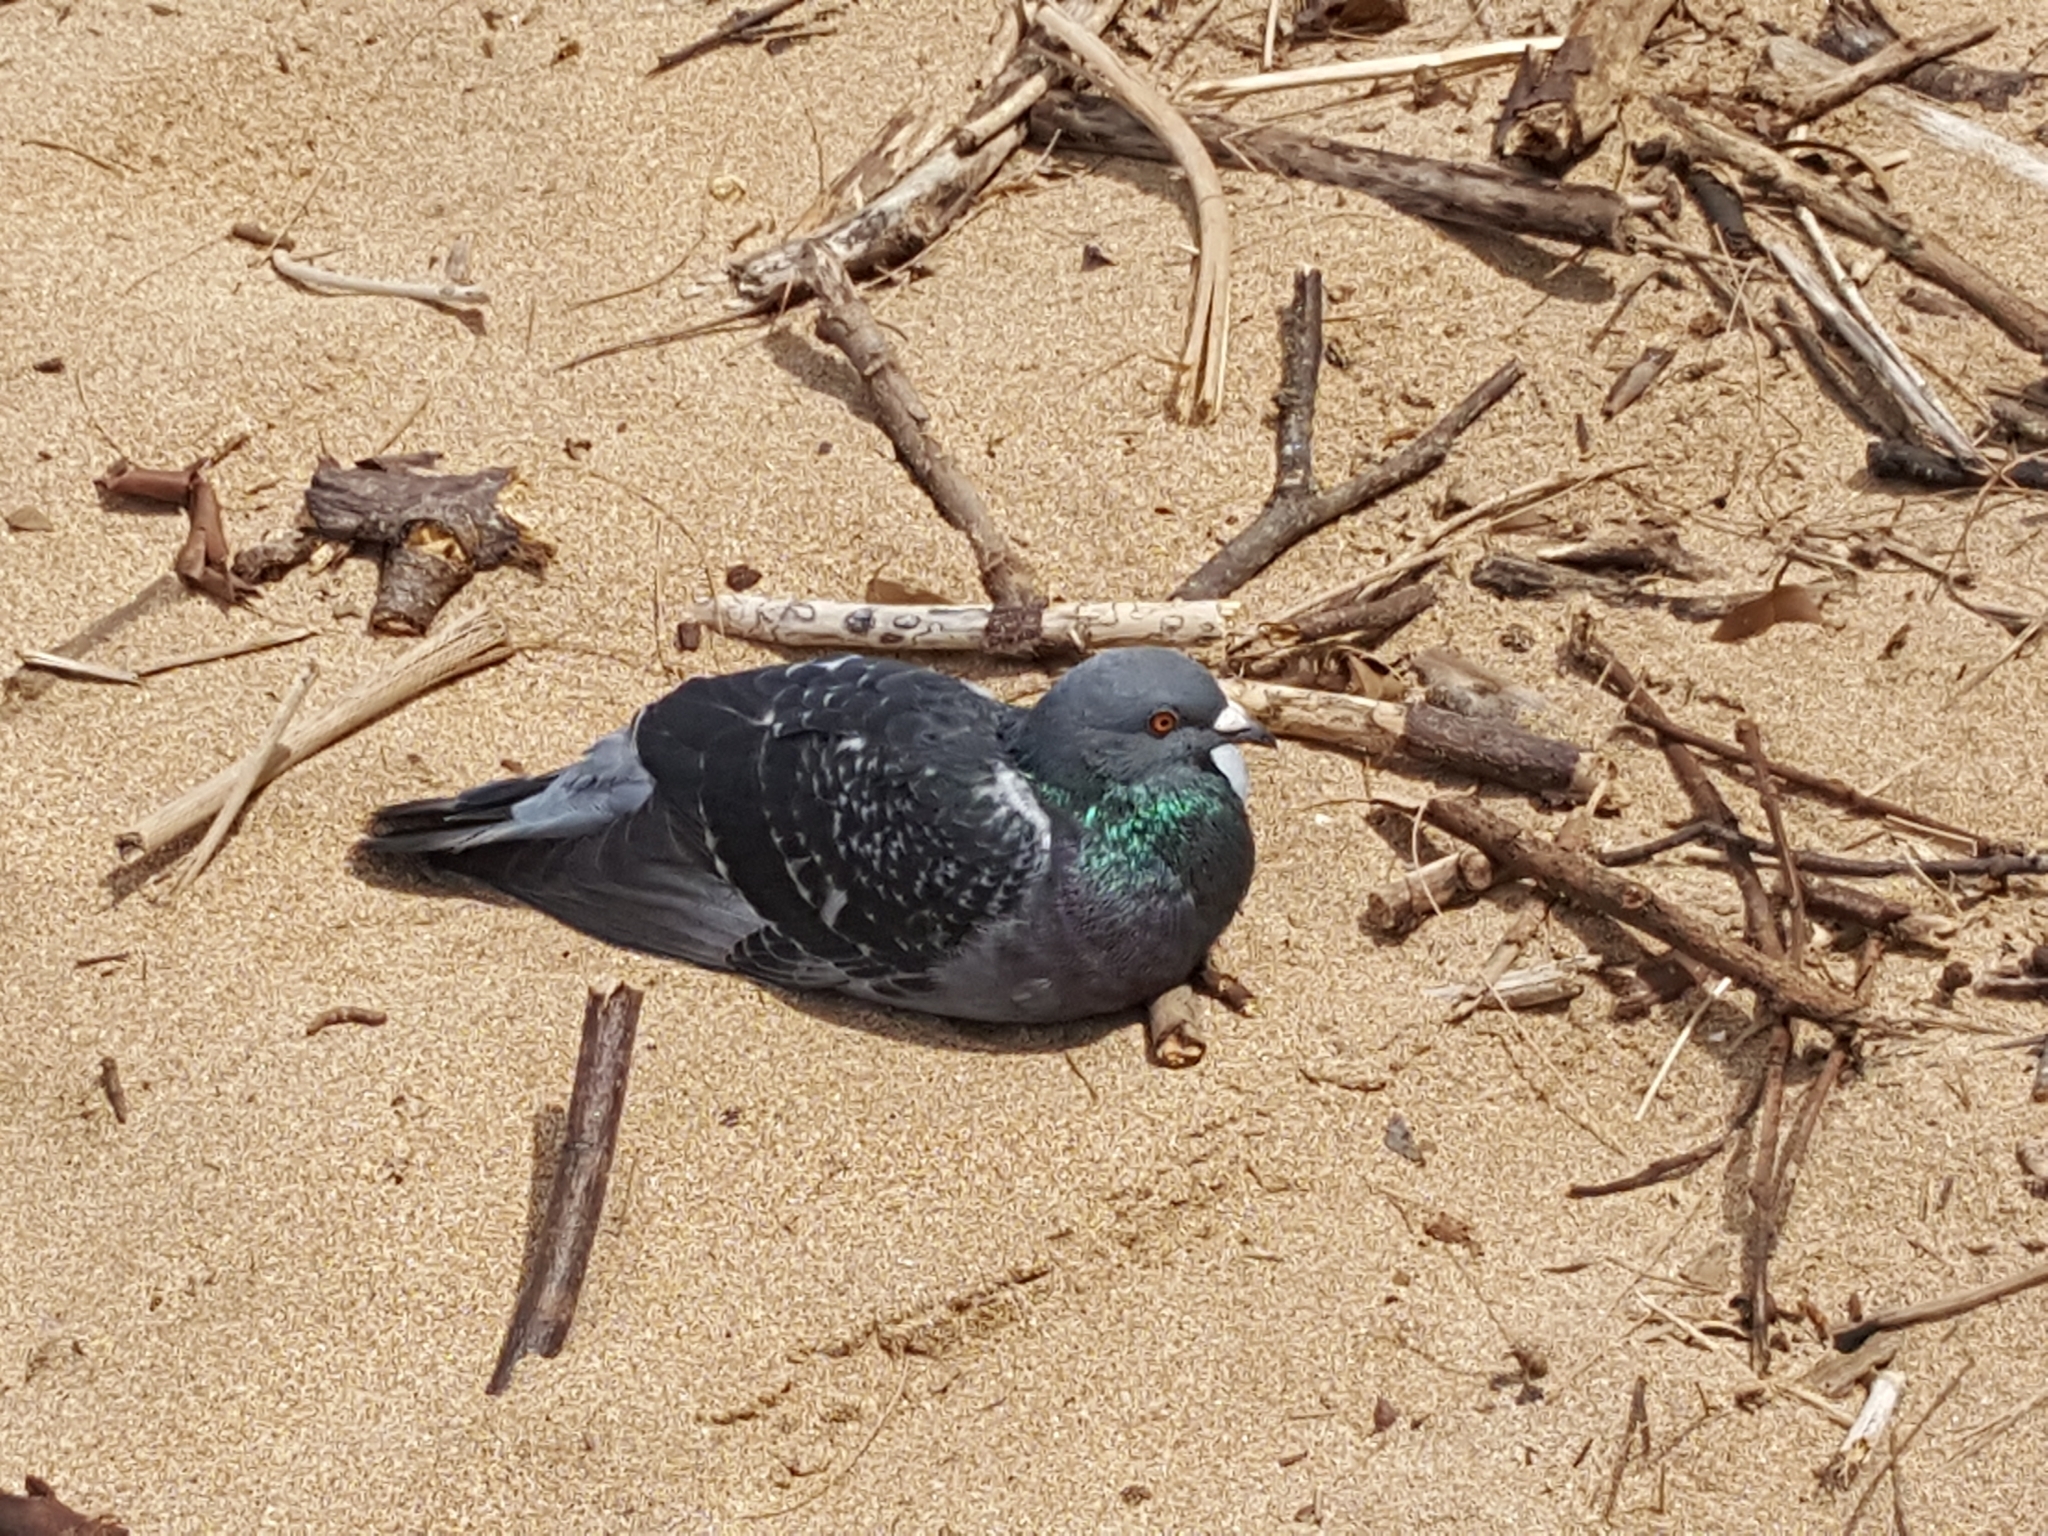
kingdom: Animalia
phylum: Chordata
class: Aves
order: Columbiformes
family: Columbidae
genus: Columba
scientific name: Columba livia
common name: Rock pigeon
